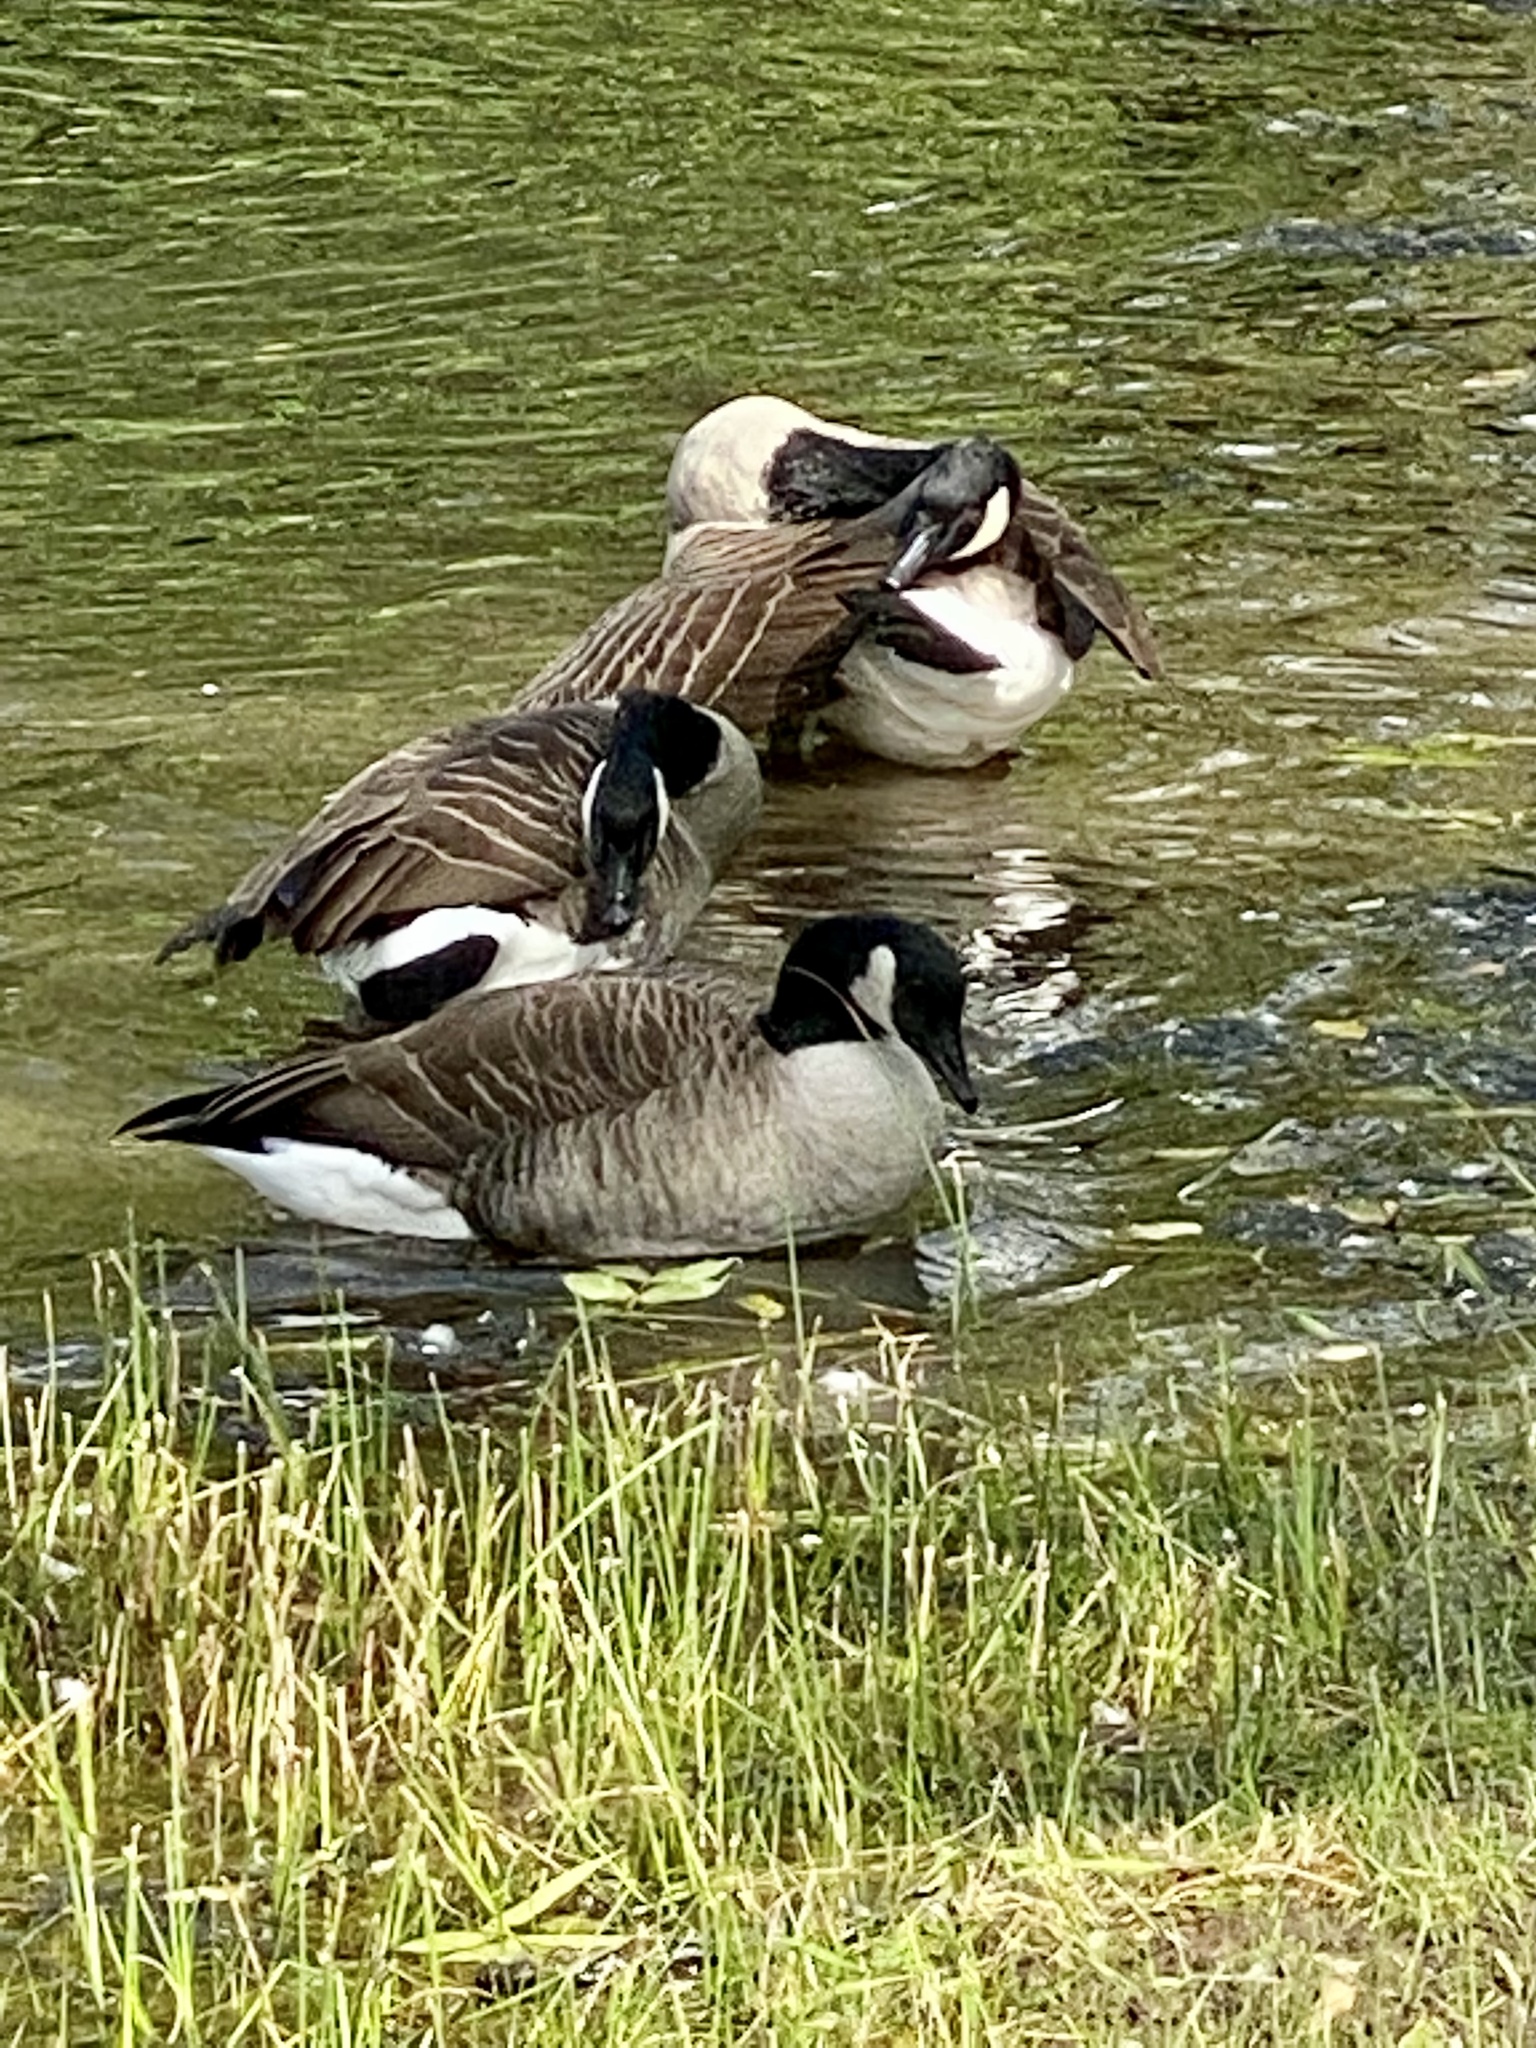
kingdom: Animalia
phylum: Chordata
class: Aves
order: Anseriformes
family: Anatidae
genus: Branta
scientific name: Branta canadensis
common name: Canada goose
